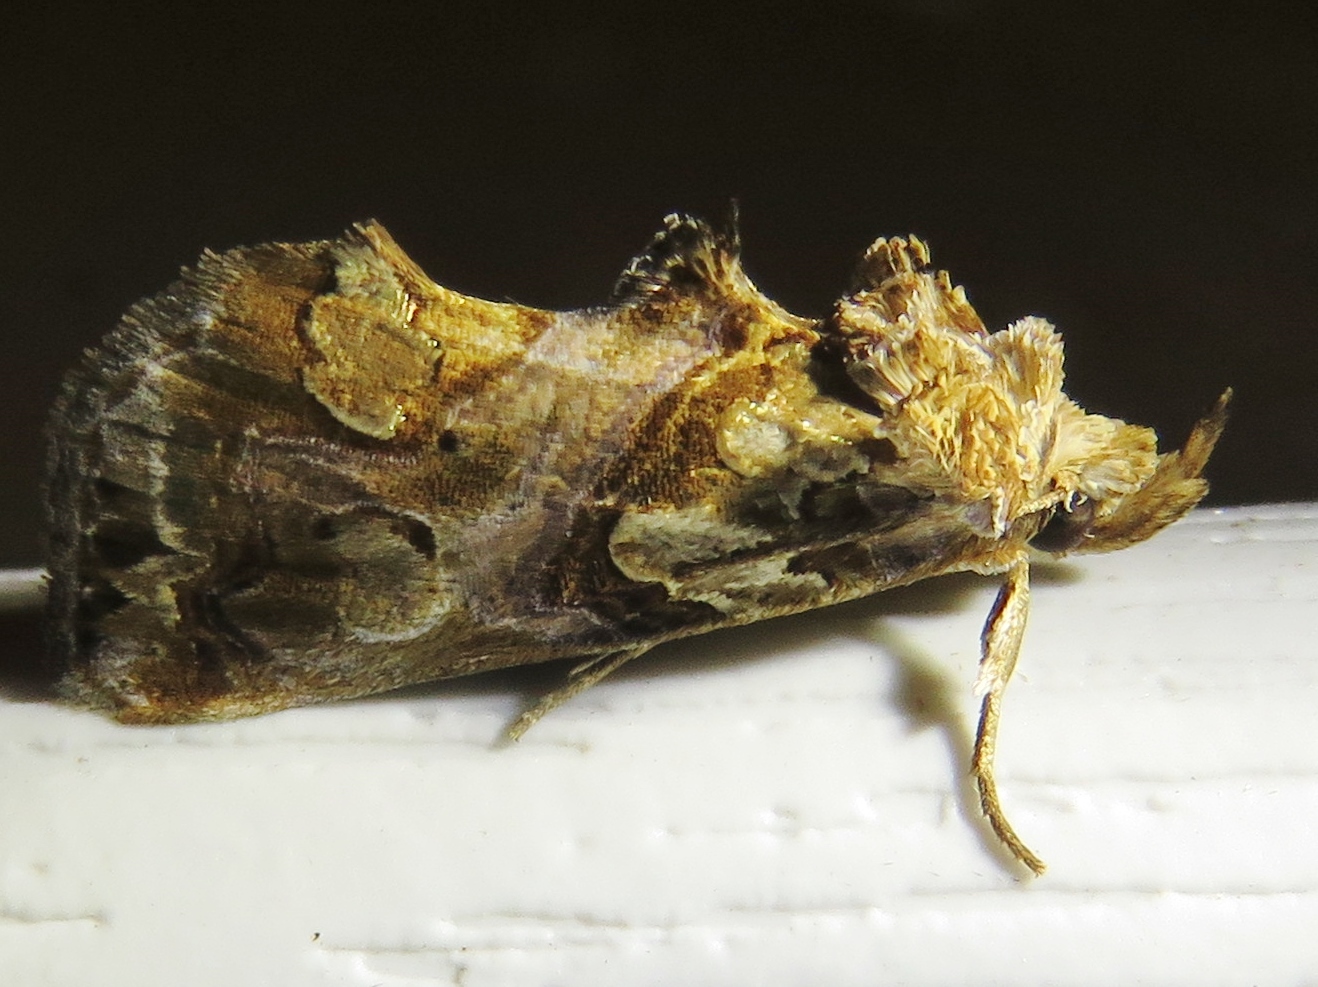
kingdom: Animalia
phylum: Arthropoda
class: Insecta
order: Lepidoptera
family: Erebidae
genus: Plusiodonta
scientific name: Plusiodonta compressipalpis
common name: Moonseed moth
